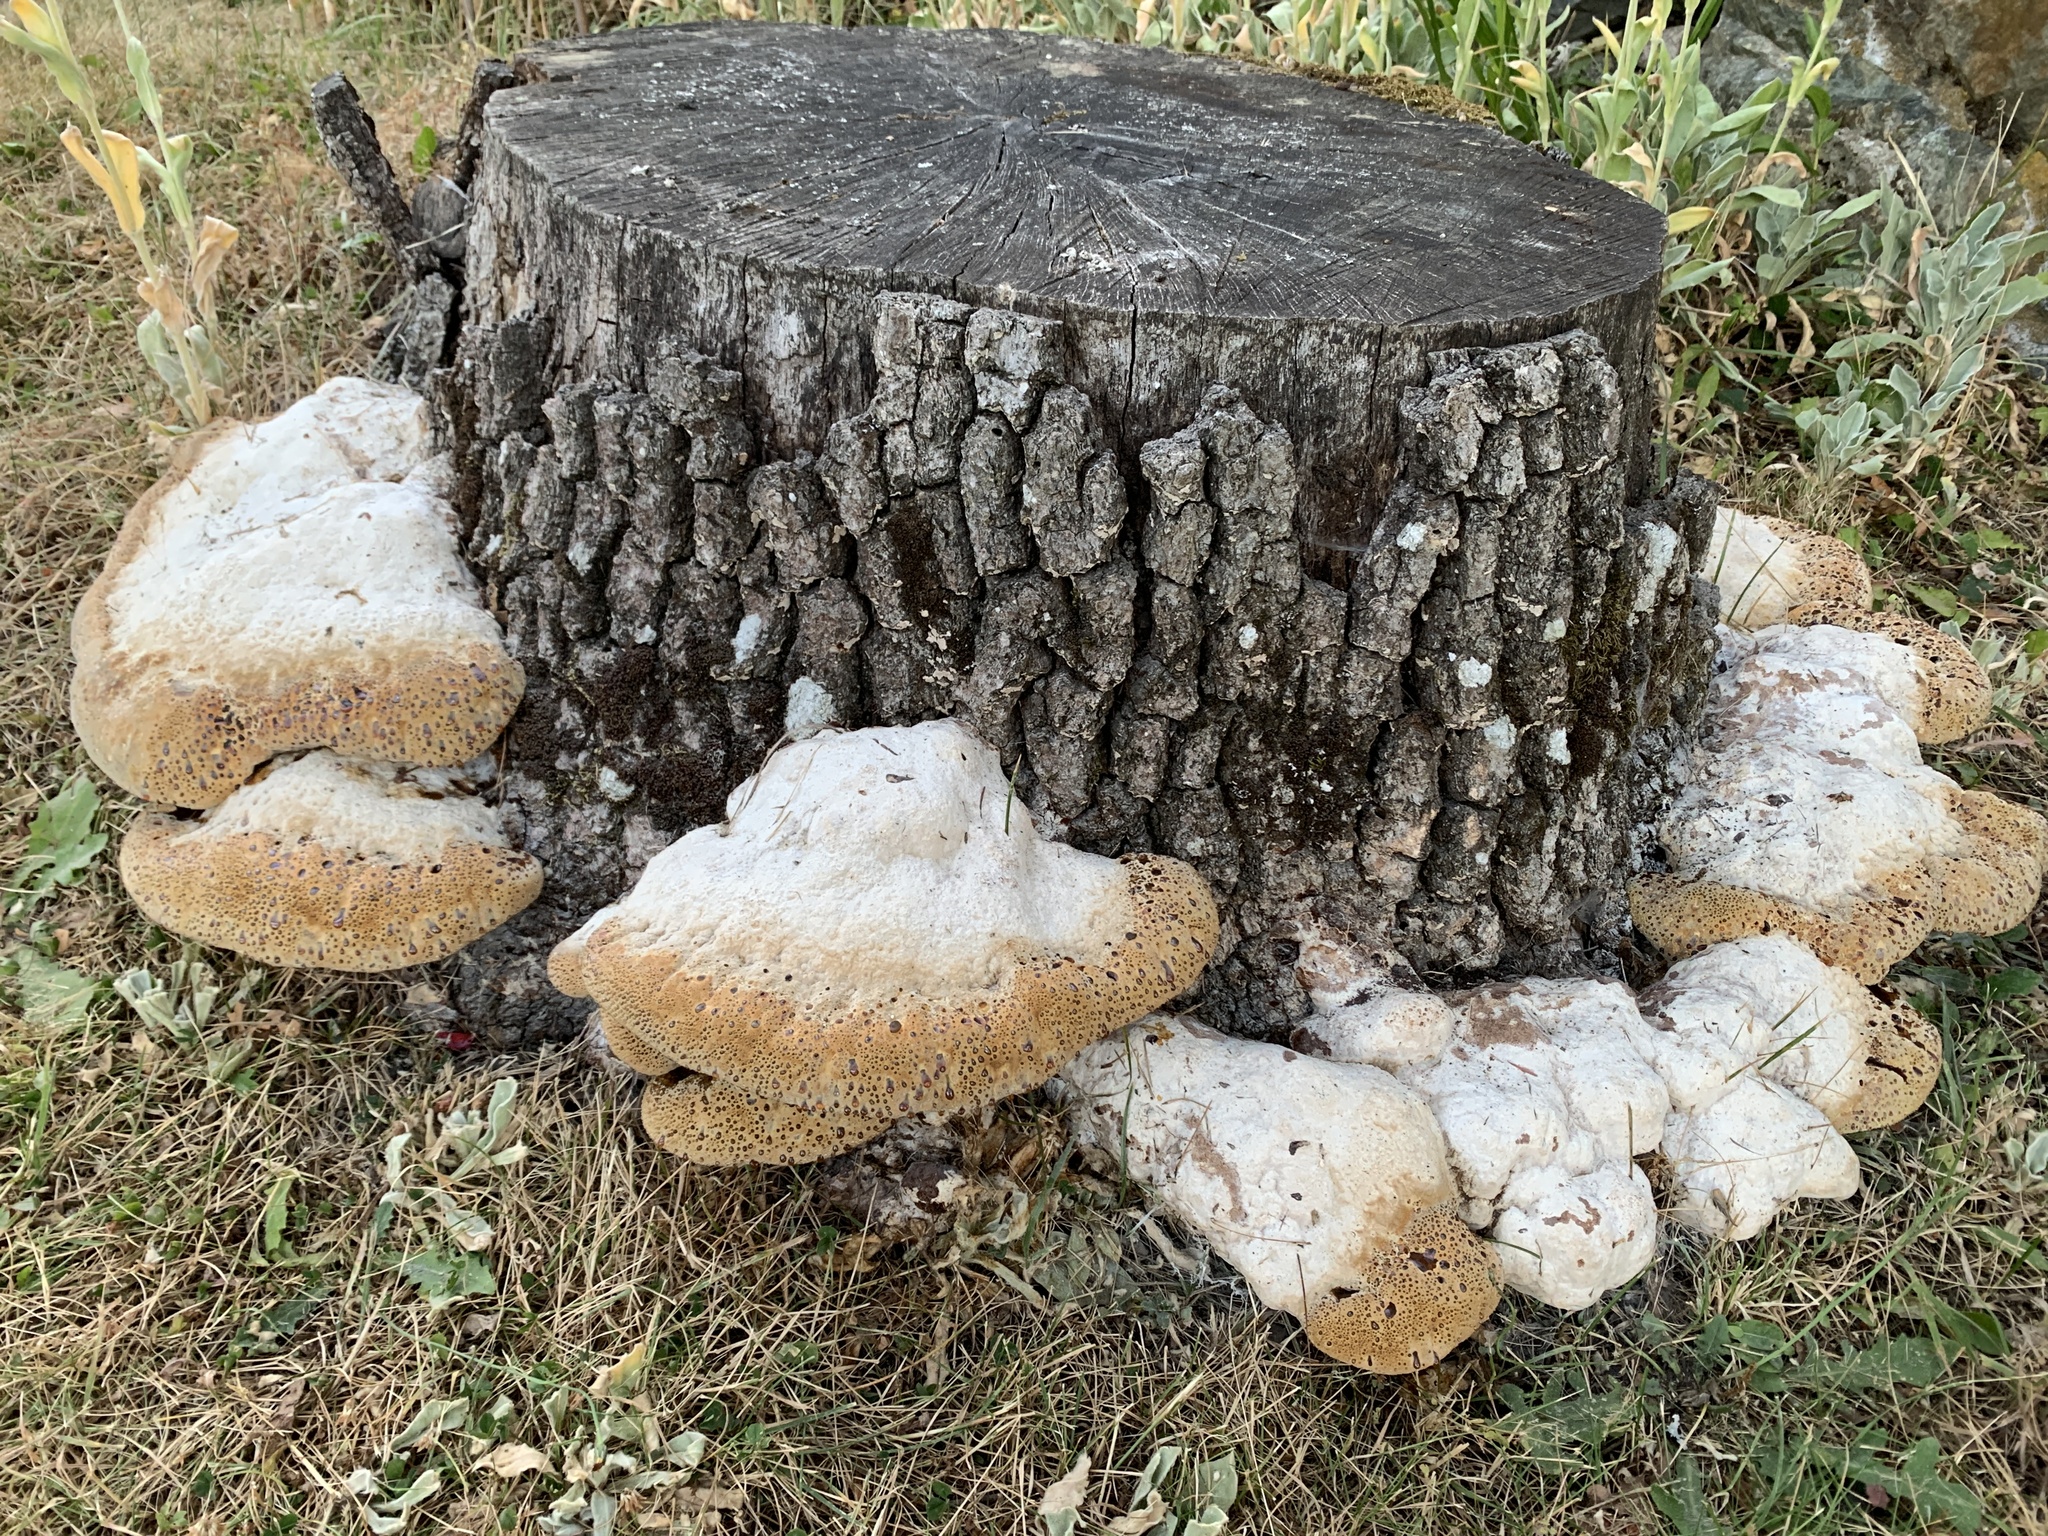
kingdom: Fungi
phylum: Basidiomycota
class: Agaricomycetes
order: Hymenochaetales
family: Hymenochaetaceae
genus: Pseudoinonotus
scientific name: Pseudoinonotus dryadeus
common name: Oak bracket
